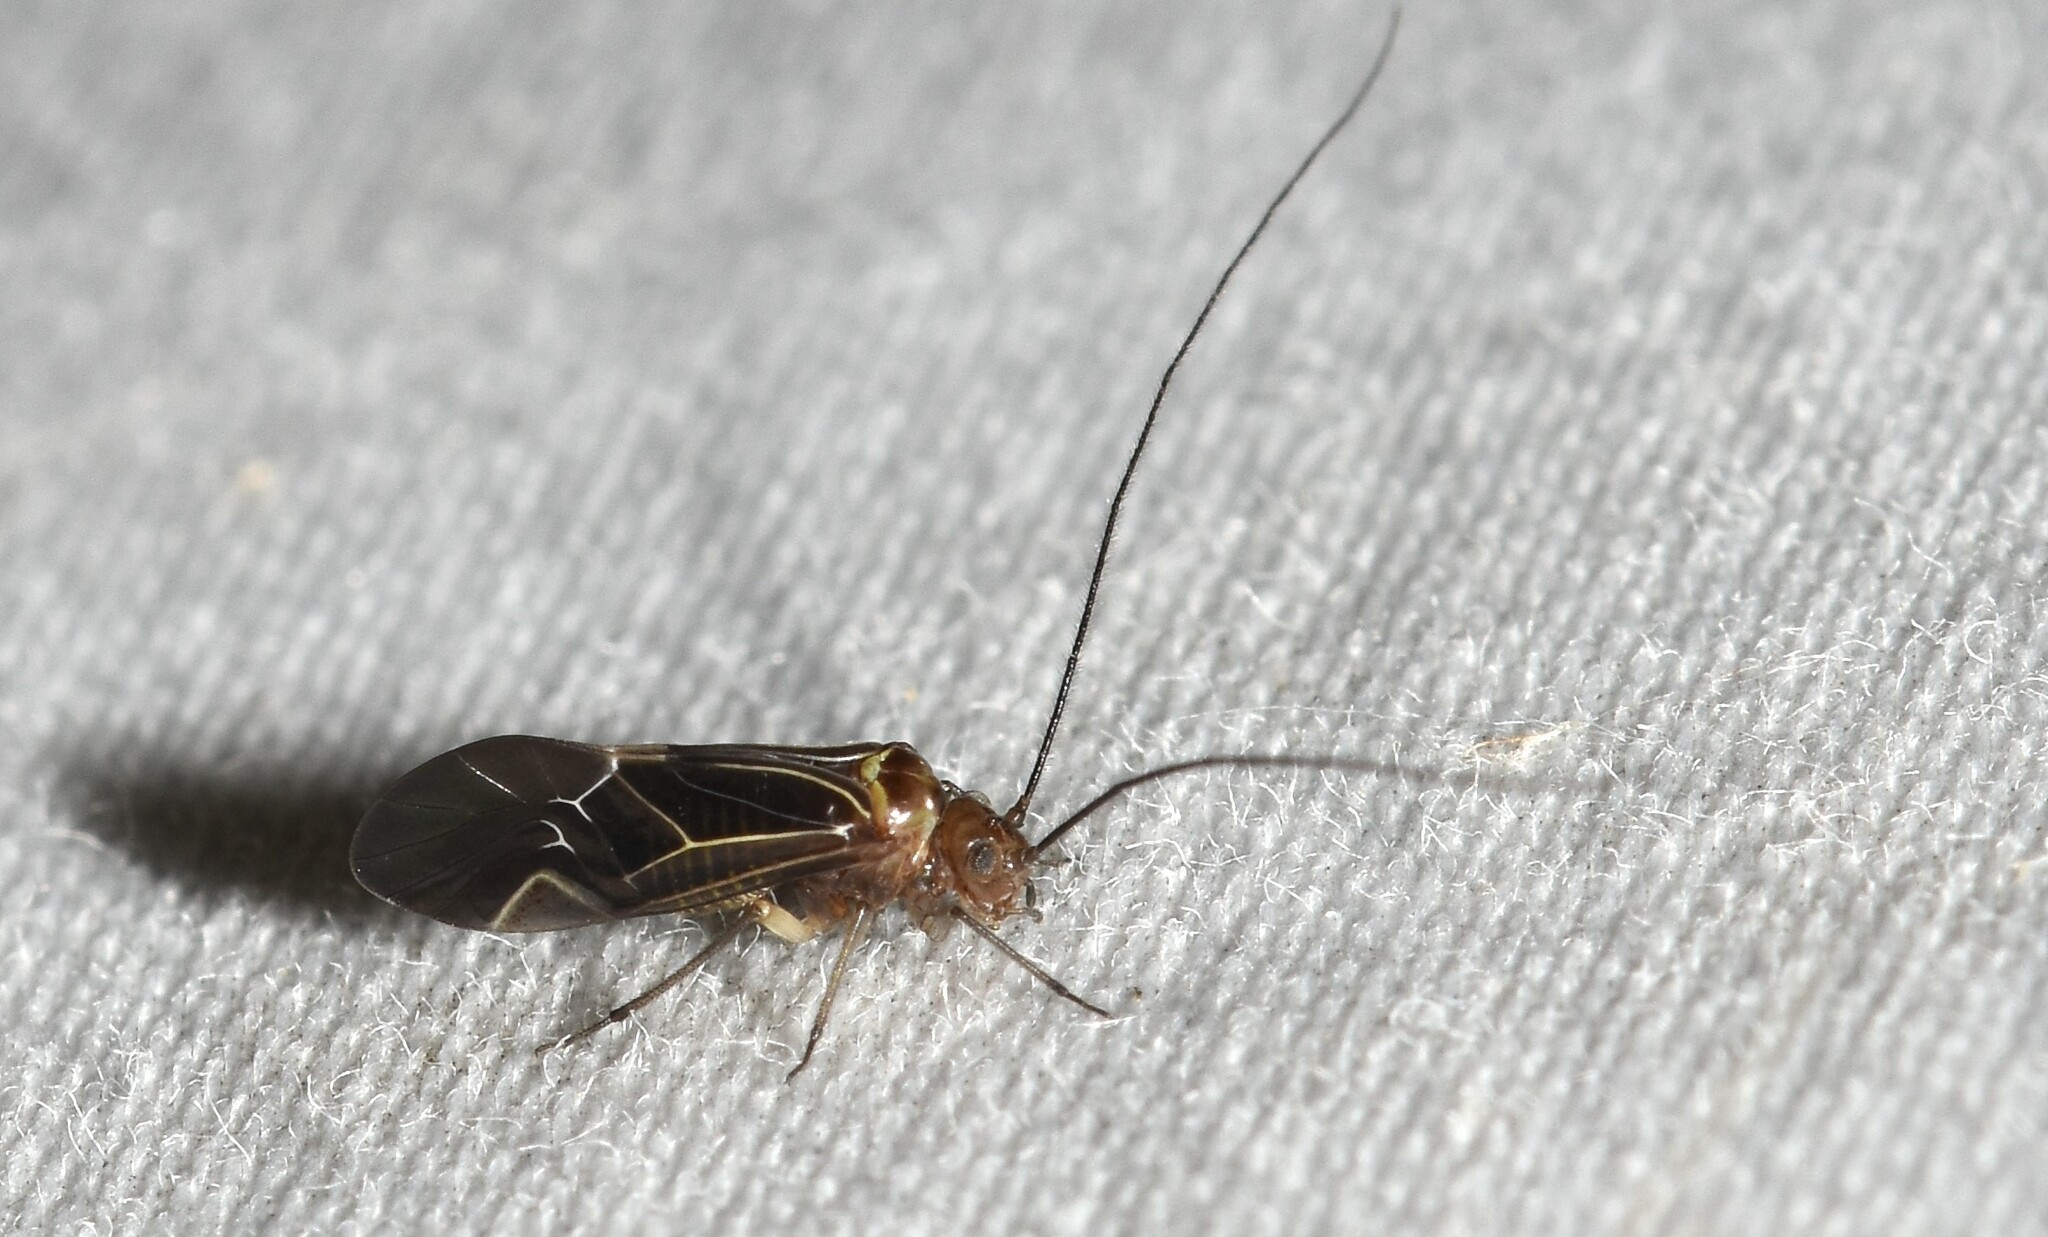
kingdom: Animalia
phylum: Arthropoda
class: Insecta
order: Psocodea
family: Psocidae
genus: Cerastipsocus
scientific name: Cerastipsocus venosus
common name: Tree cattle
